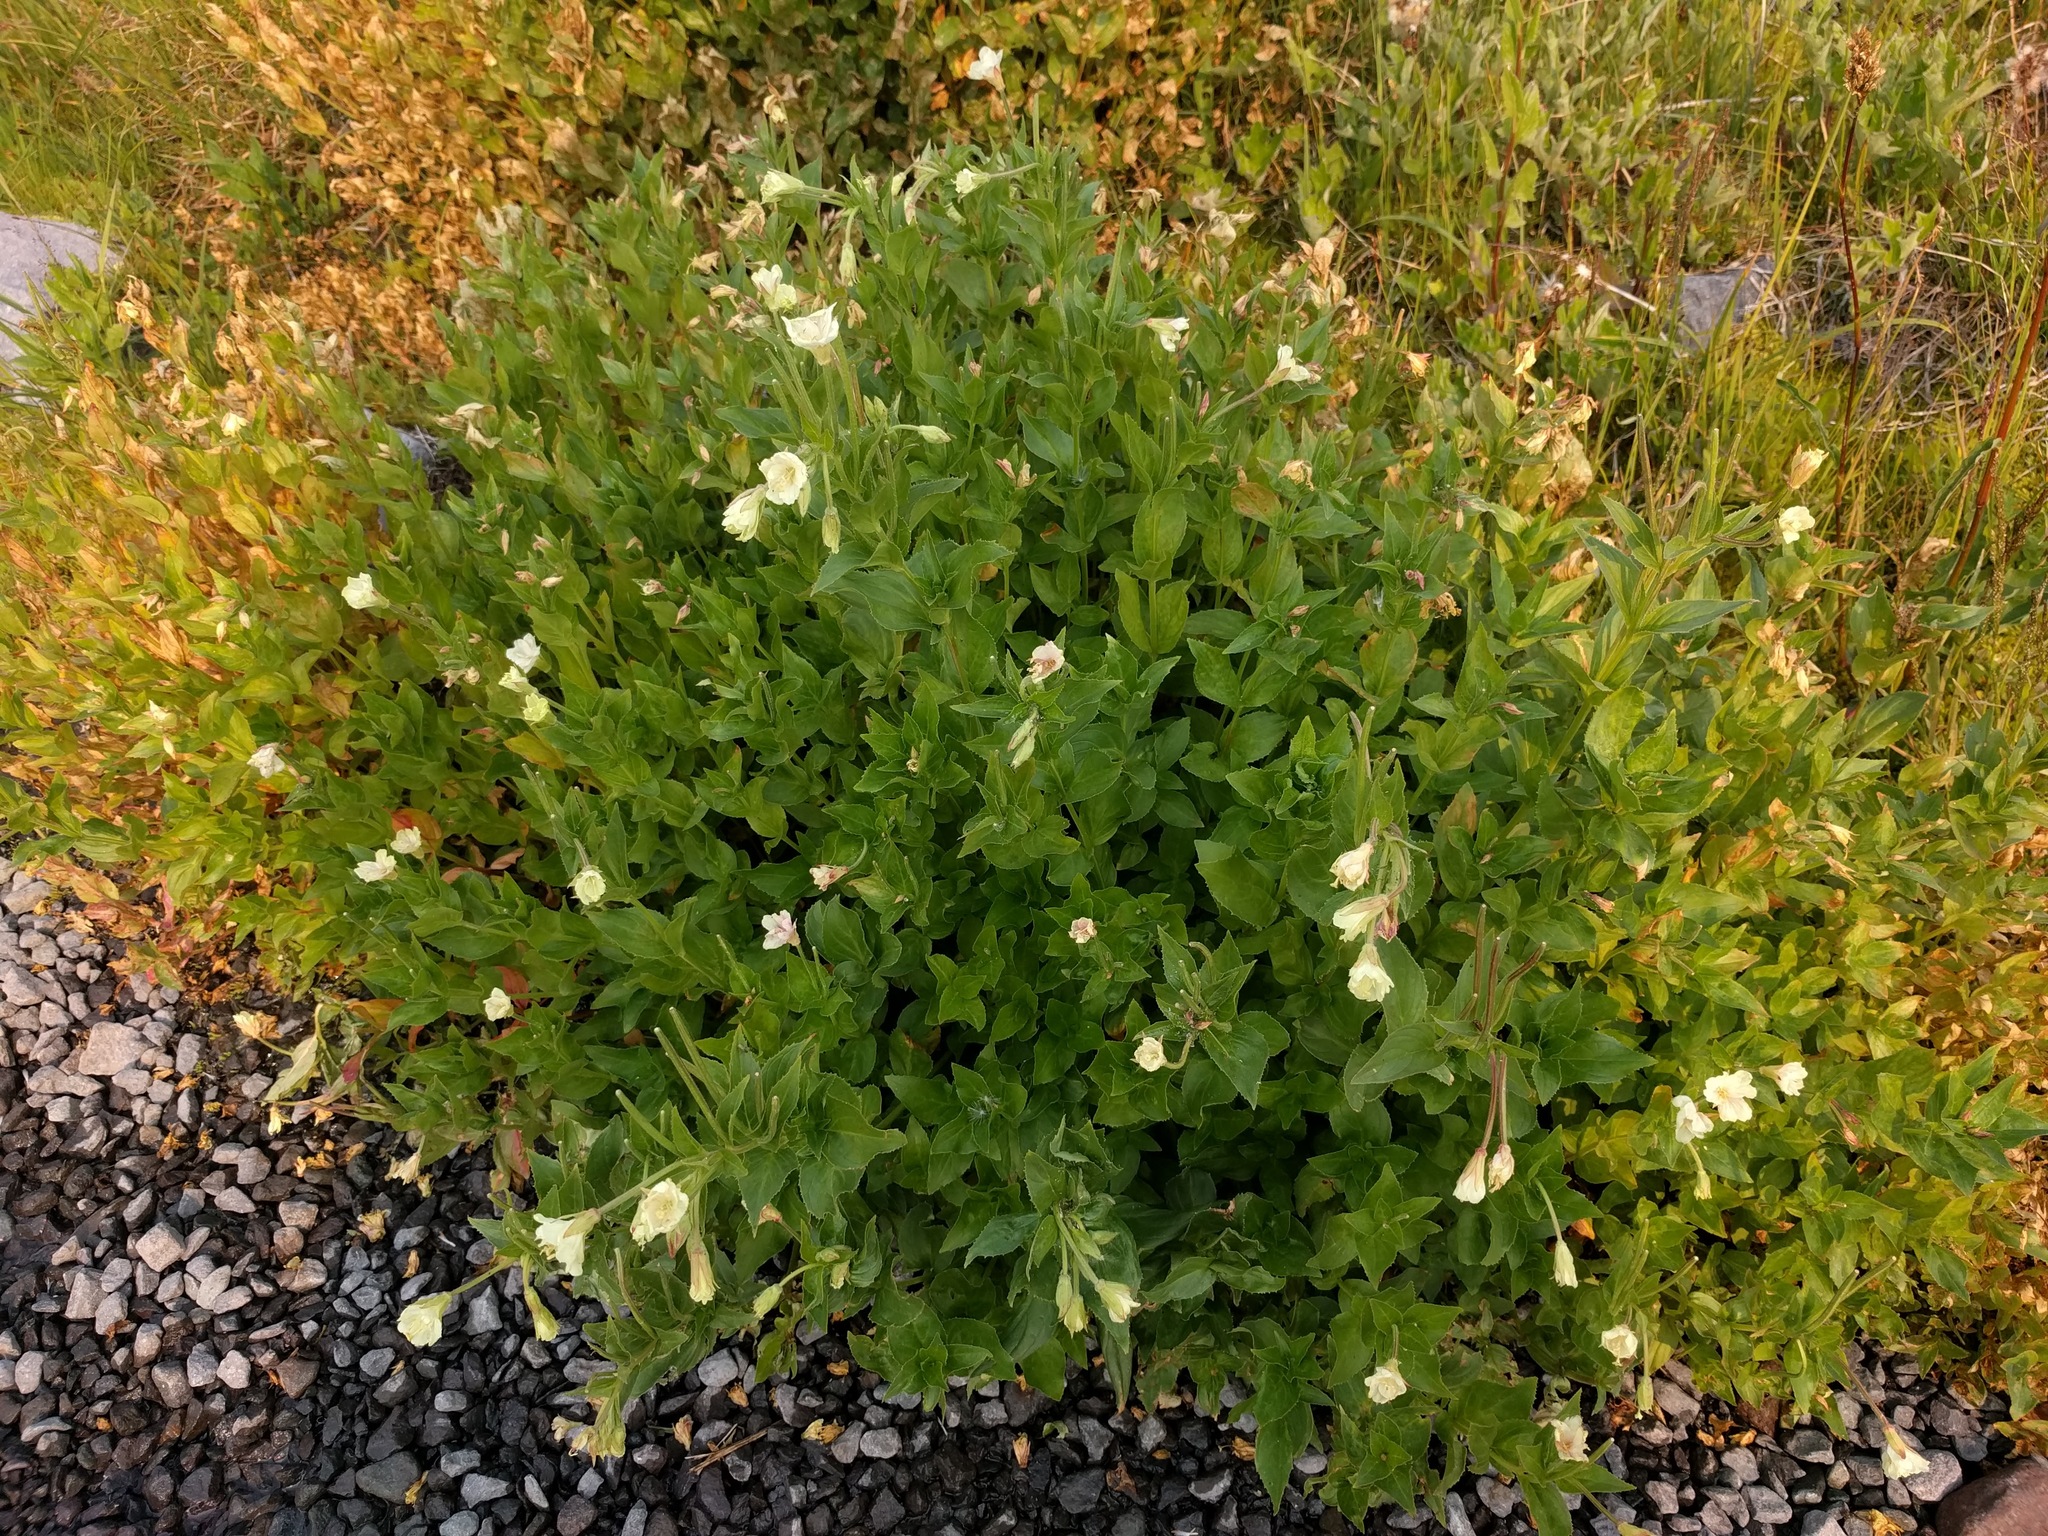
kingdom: Plantae
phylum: Tracheophyta
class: Magnoliopsida
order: Myrtales
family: Onagraceae
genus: Epilobium
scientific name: Epilobium luteum
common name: Yellow willowherb
